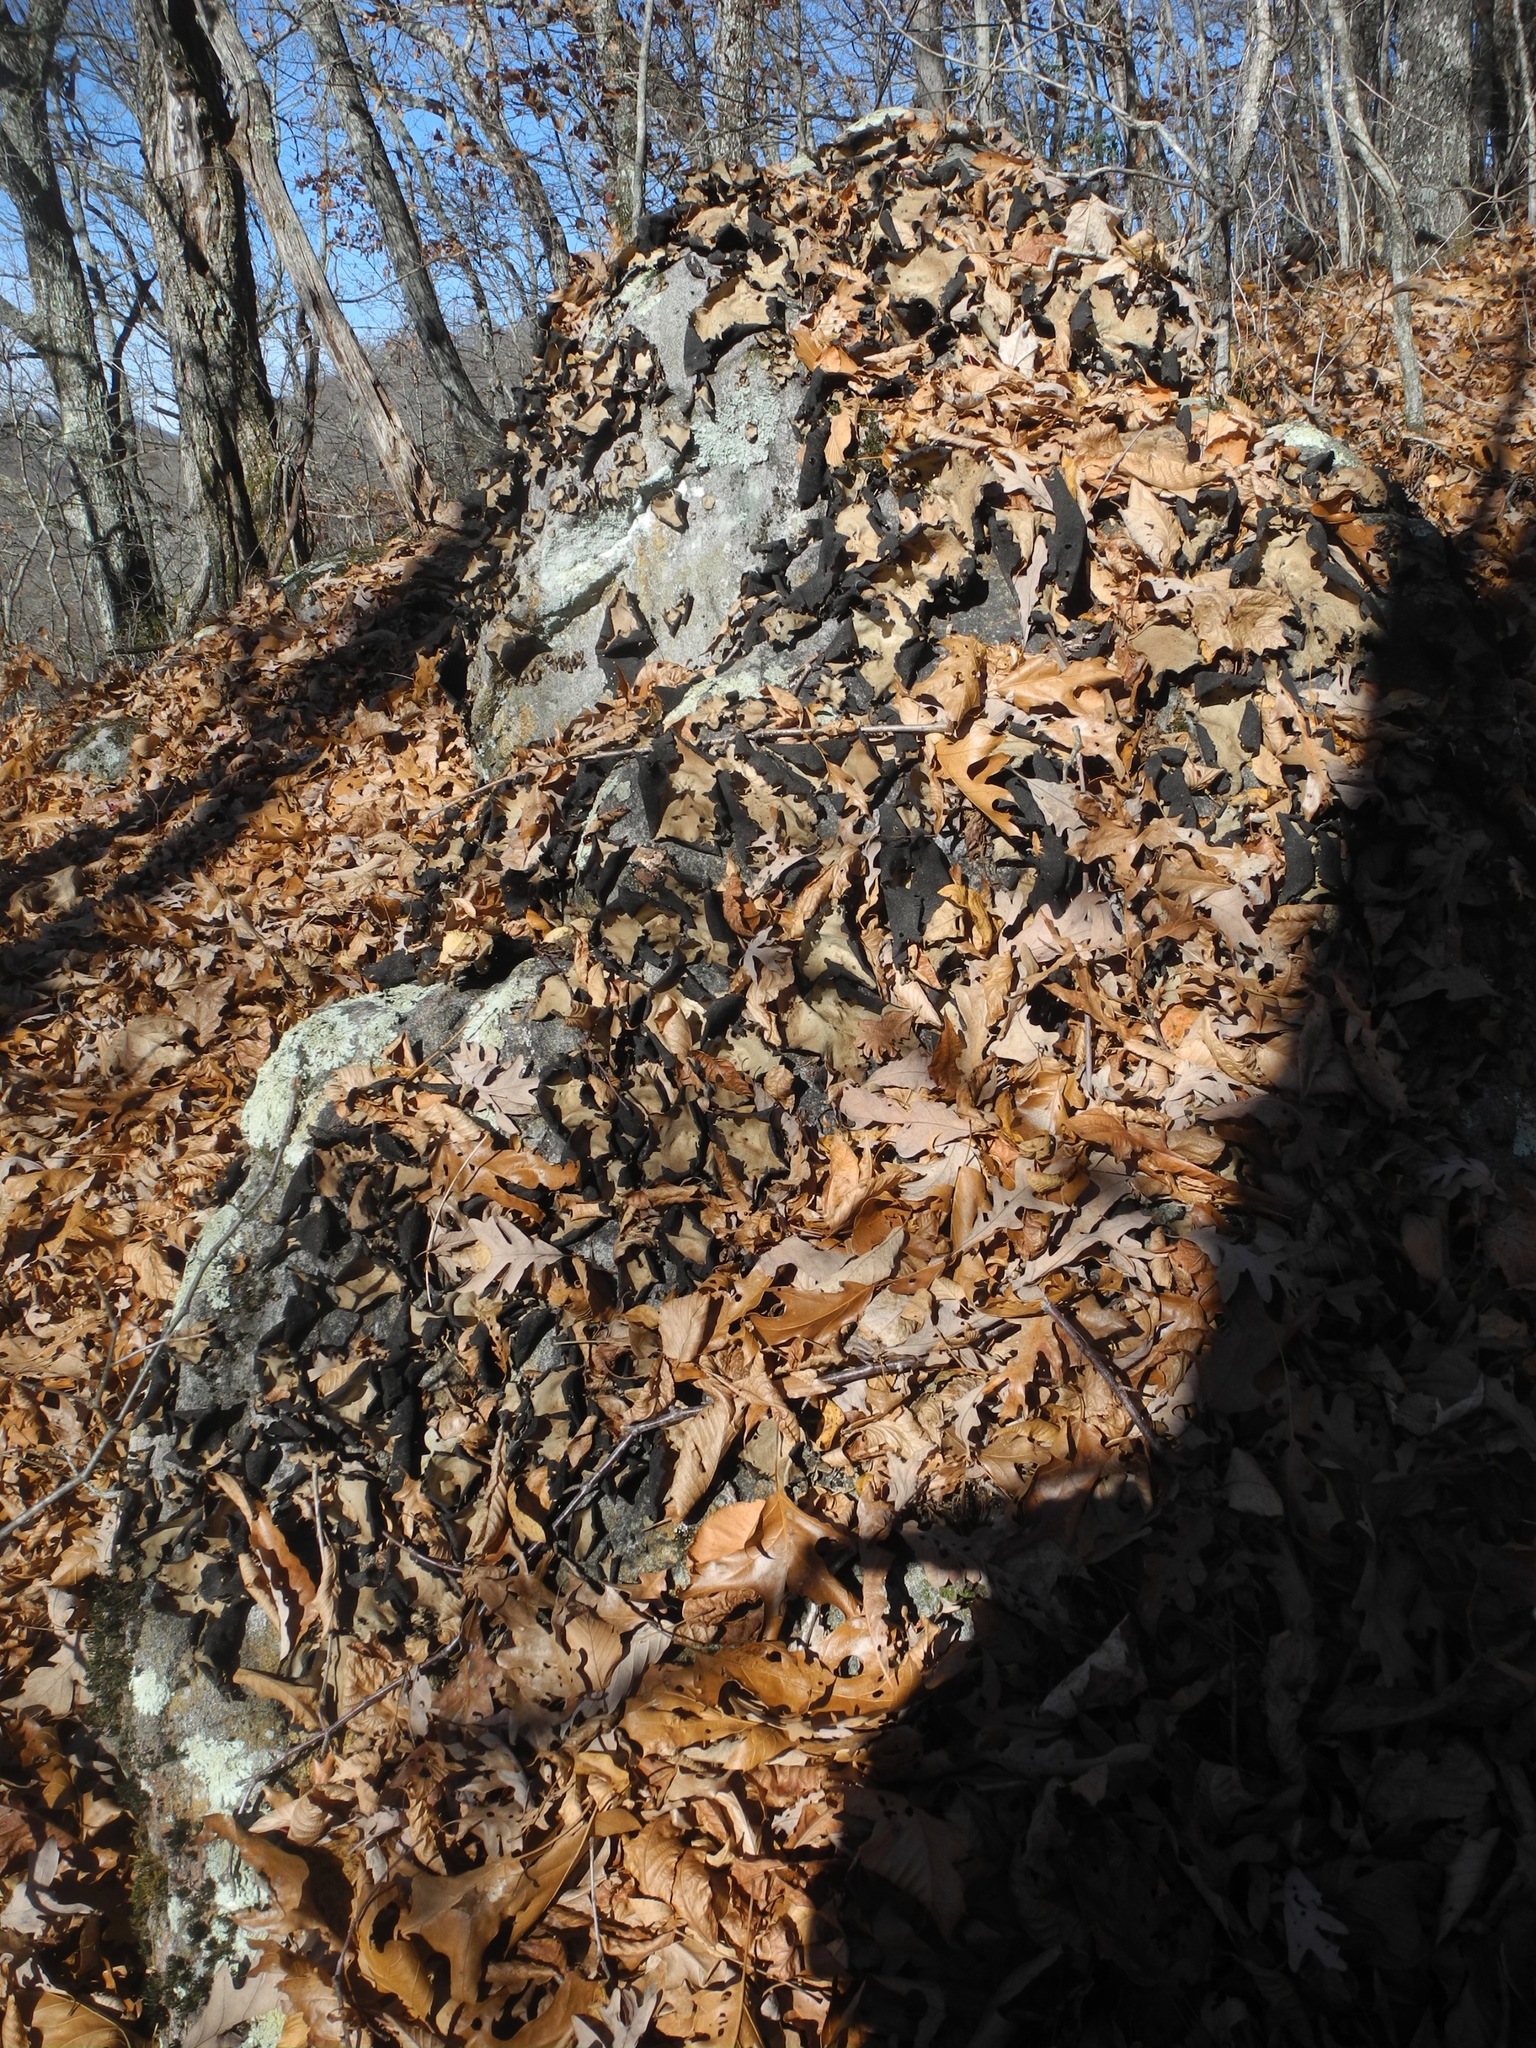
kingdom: Fungi
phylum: Ascomycota
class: Lecanoromycetes
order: Umbilicariales
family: Umbilicariaceae
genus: Umbilicaria
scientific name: Umbilicaria mammulata
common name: Smooth rock tripe
